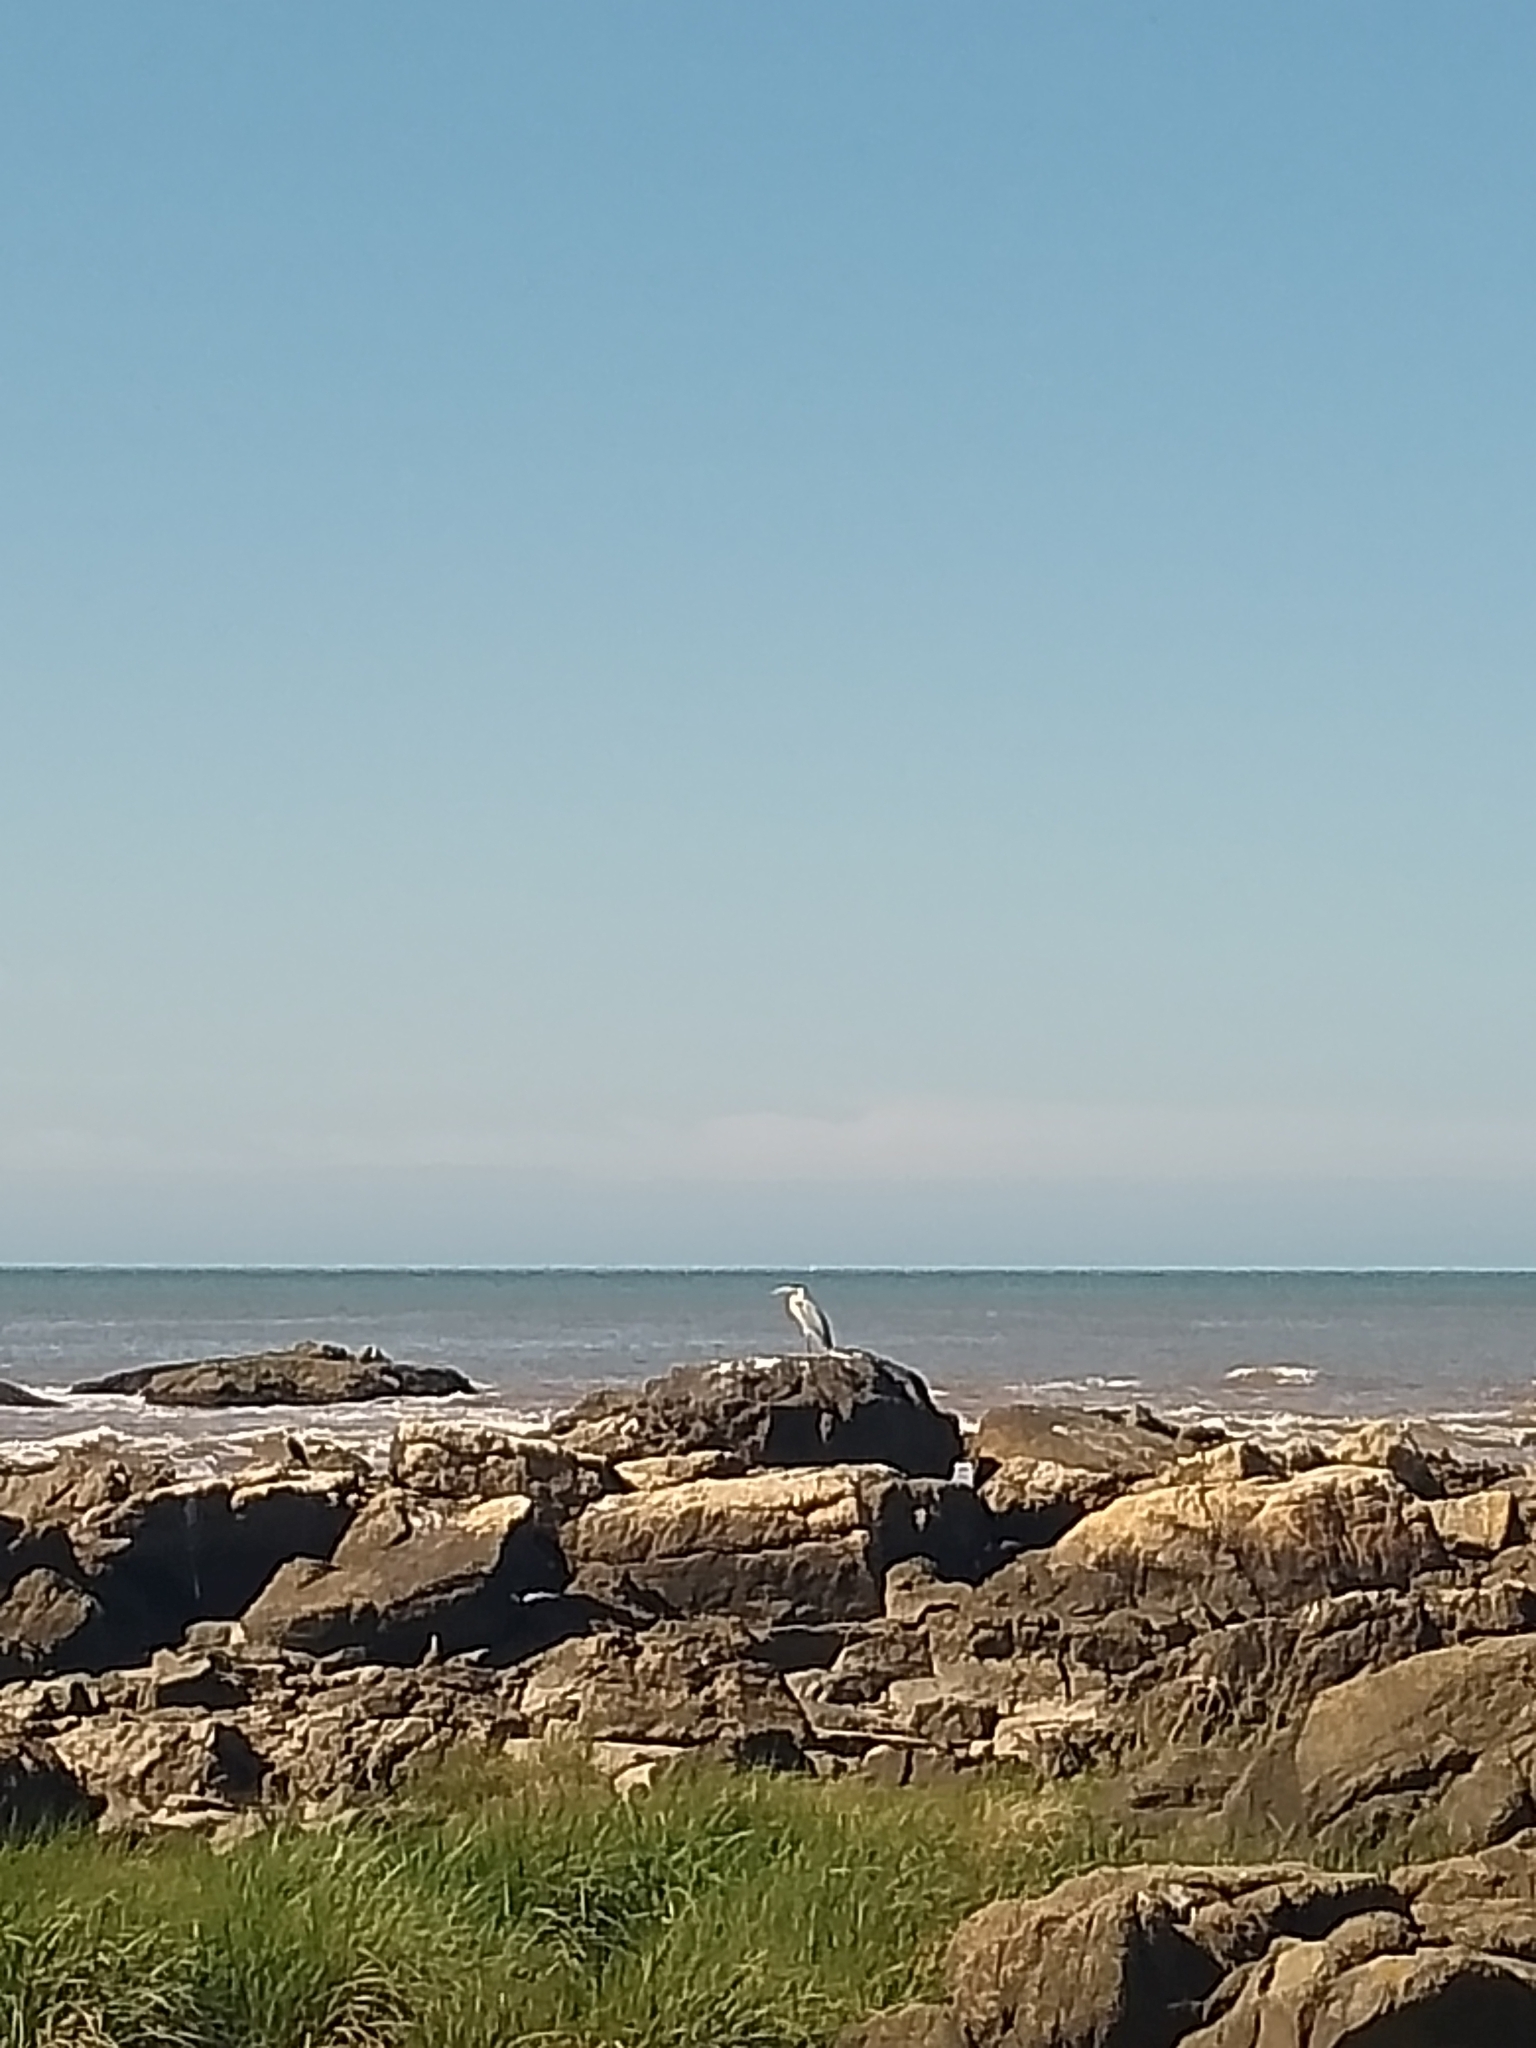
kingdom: Animalia
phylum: Chordata
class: Aves
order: Pelecaniformes
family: Ardeidae
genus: Ardea
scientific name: Ardea cocoi
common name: Cocoi heron
